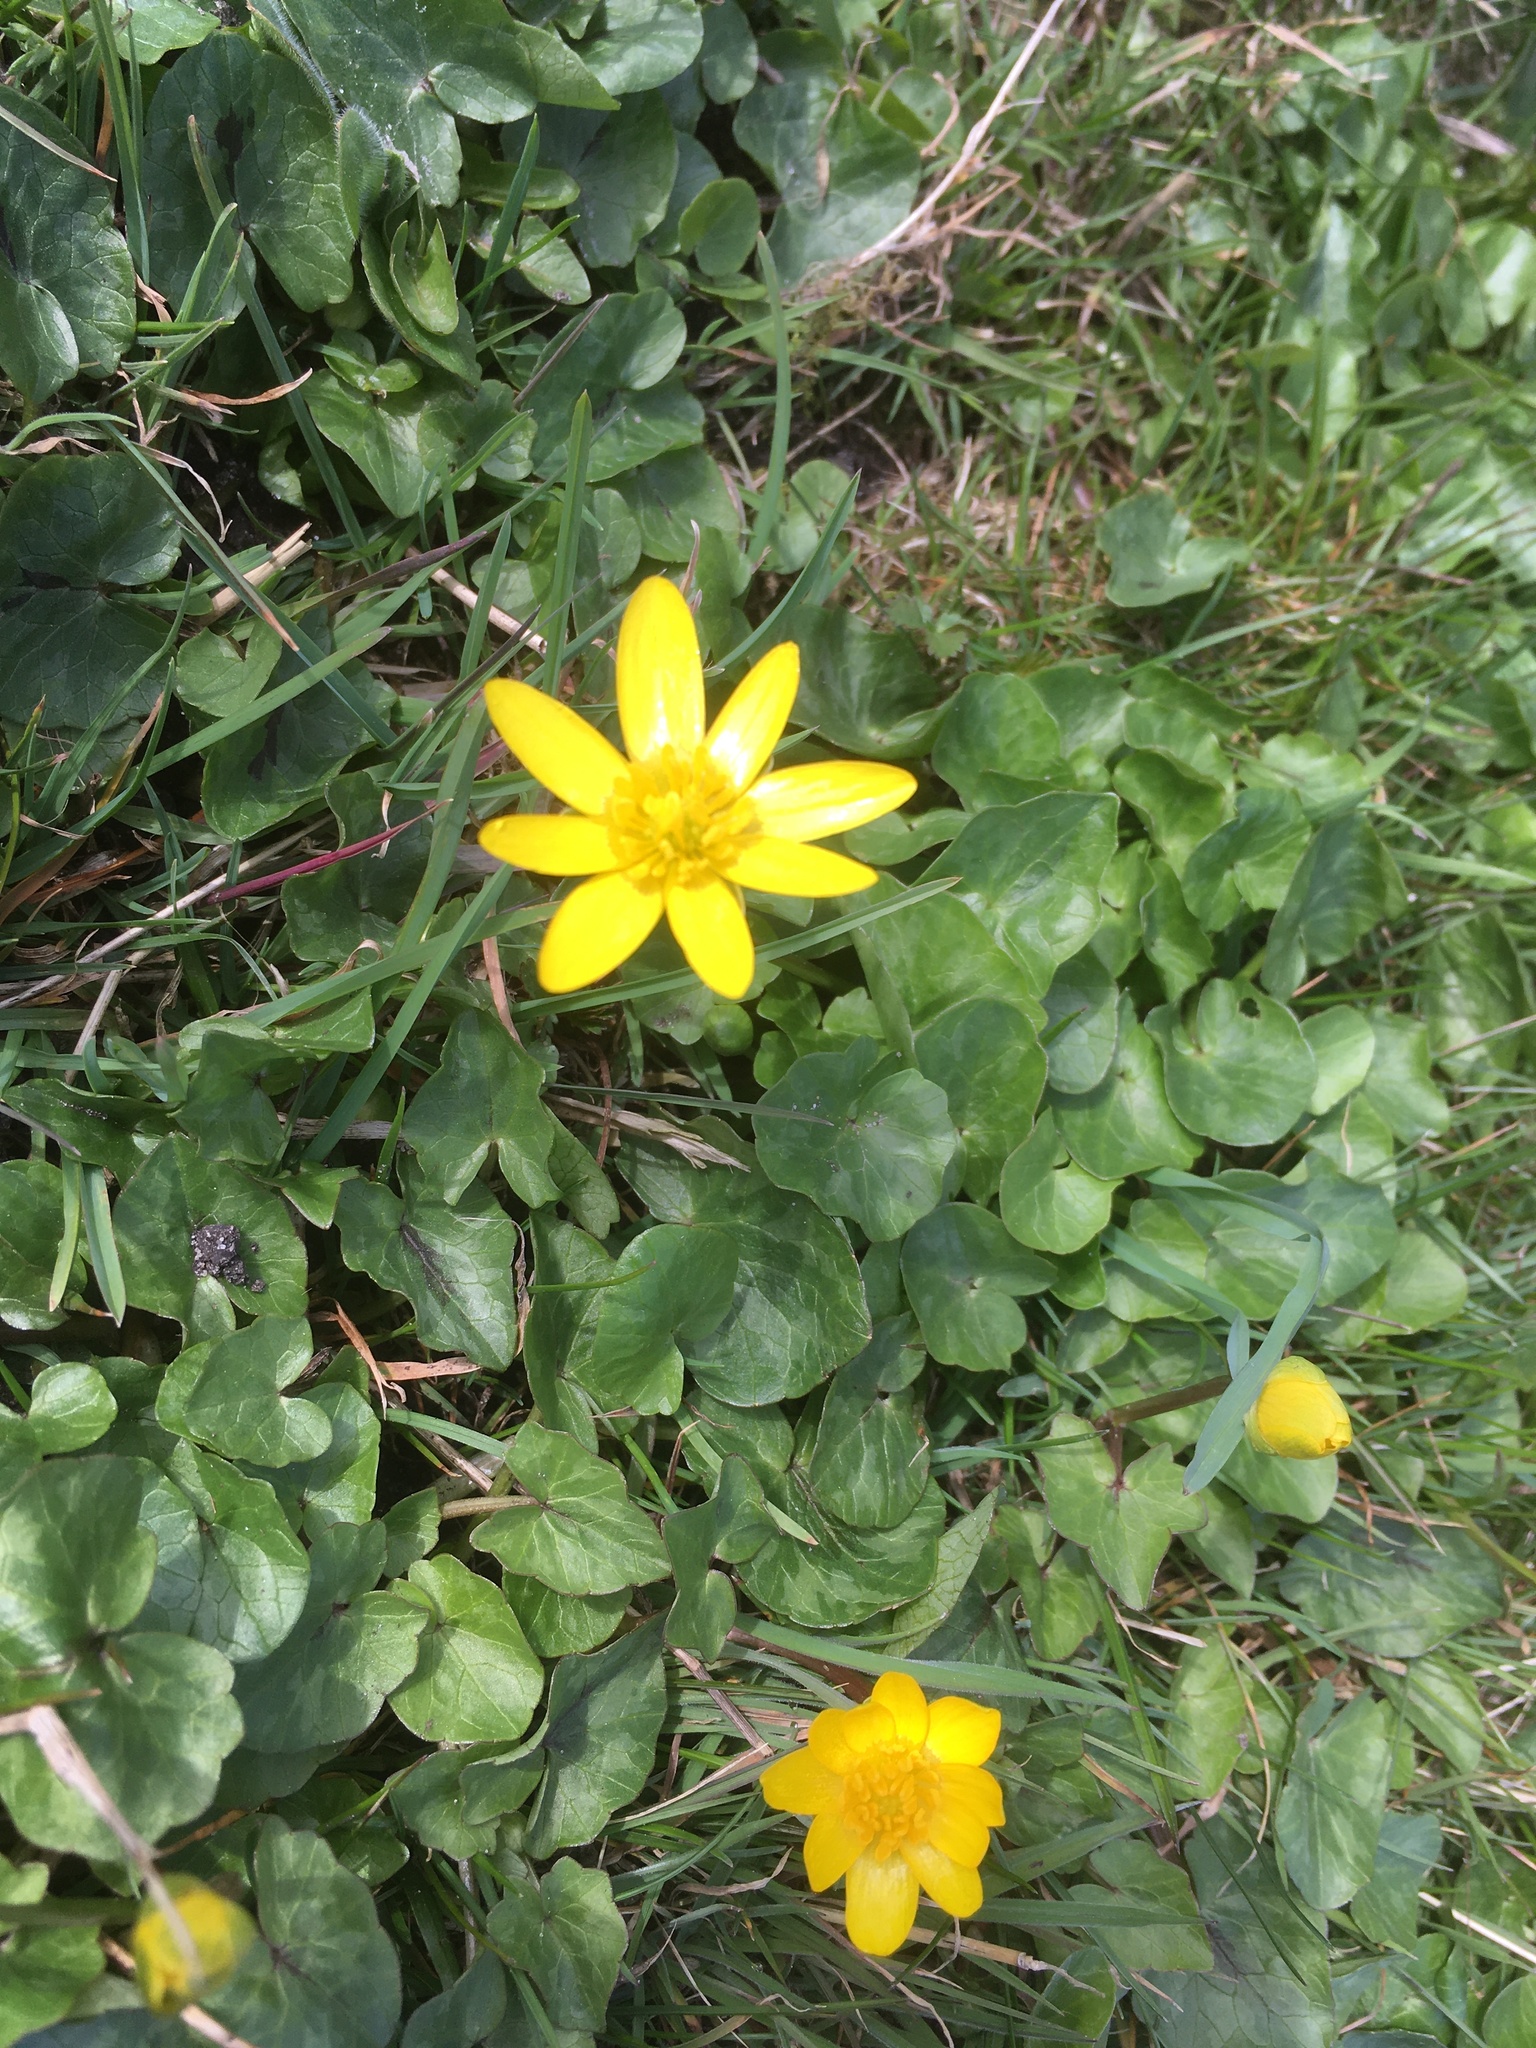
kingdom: Plantae
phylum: Tracheophyta
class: Magnoliopsida
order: Ranunculales
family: Ranunculaceae
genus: Ficaria
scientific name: Ficaria verna
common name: Lesser celandine
